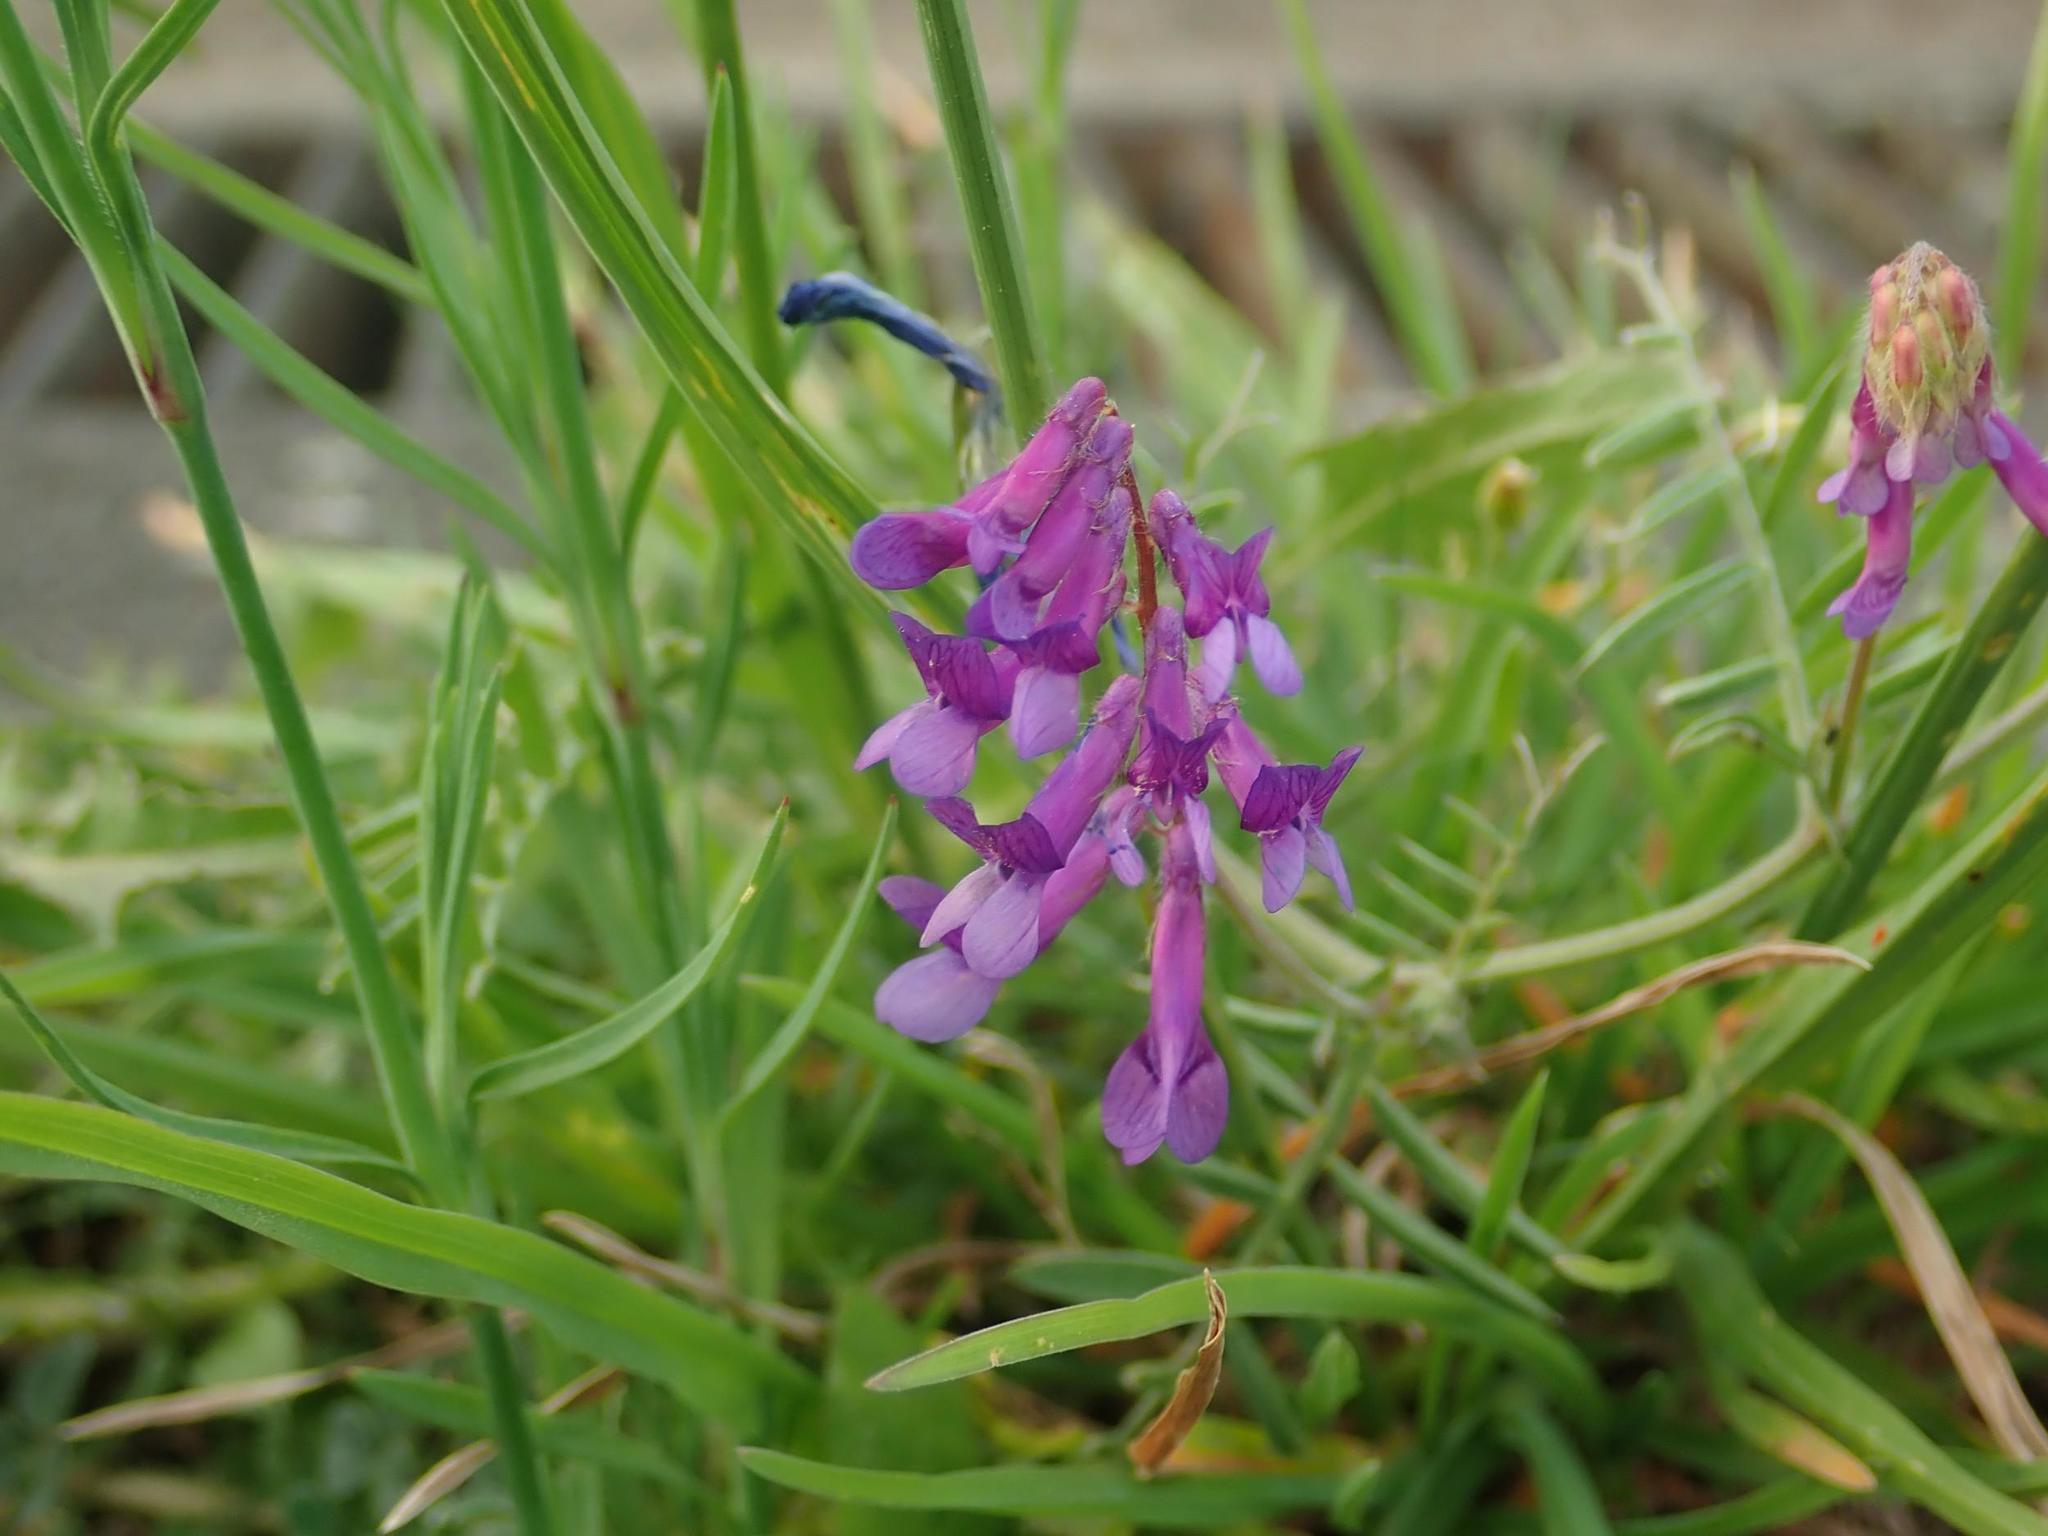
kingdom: Plantae
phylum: Tracheophyta
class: Magnoliopsida
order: Fabales
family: Fabaceae
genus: Vicia
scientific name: Vicia villosa
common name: Fodder vetch
